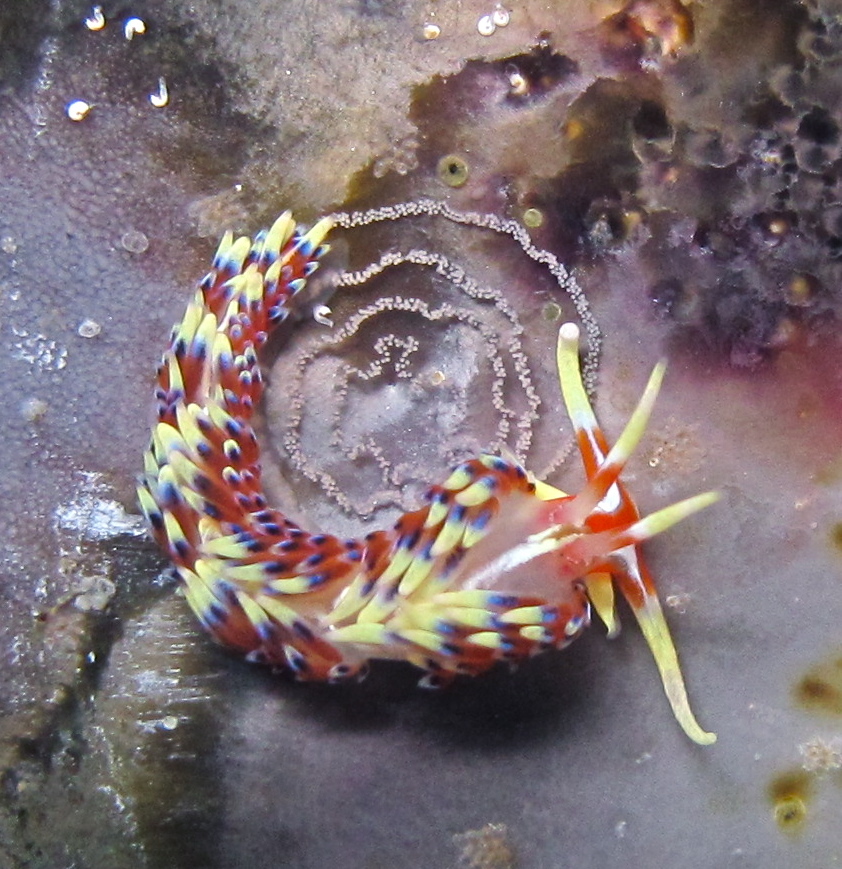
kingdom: Animalia
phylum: Mollusca
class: Gastropoda
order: Nudibranchia
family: Facelinidae
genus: Caloria
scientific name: Caloria indica
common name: Sea slug
